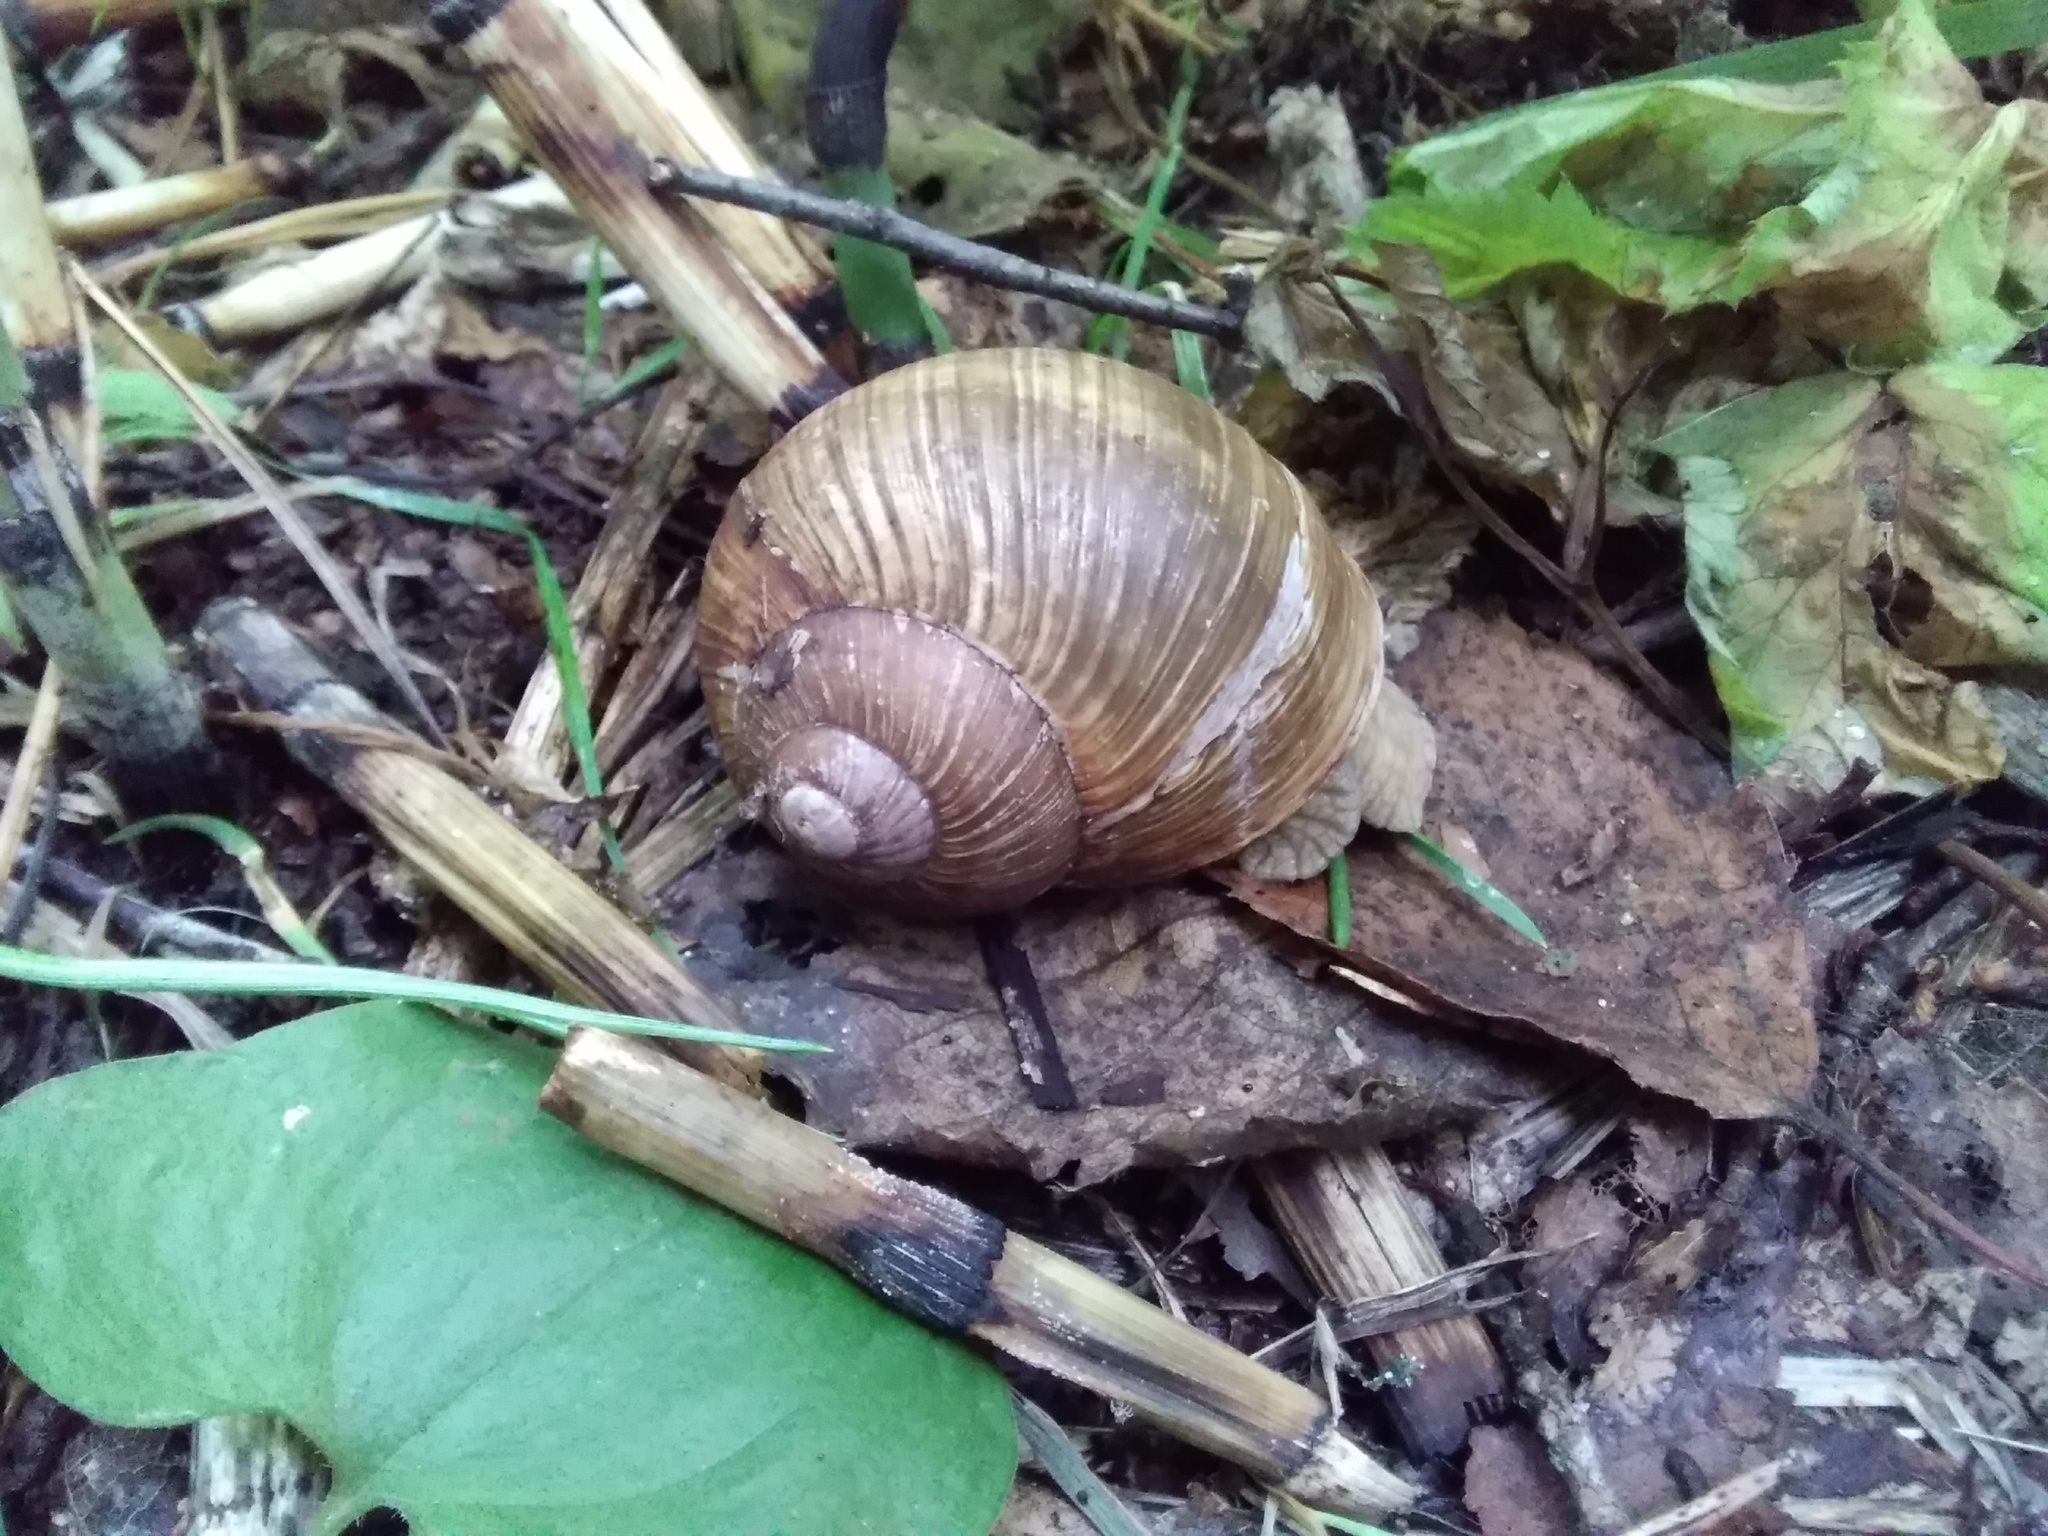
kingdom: Animalia
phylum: Mollusca
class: Gastropoda
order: Stylommatophora
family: Helicidae
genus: Helix
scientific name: Helix pomatia
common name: Roman snail
